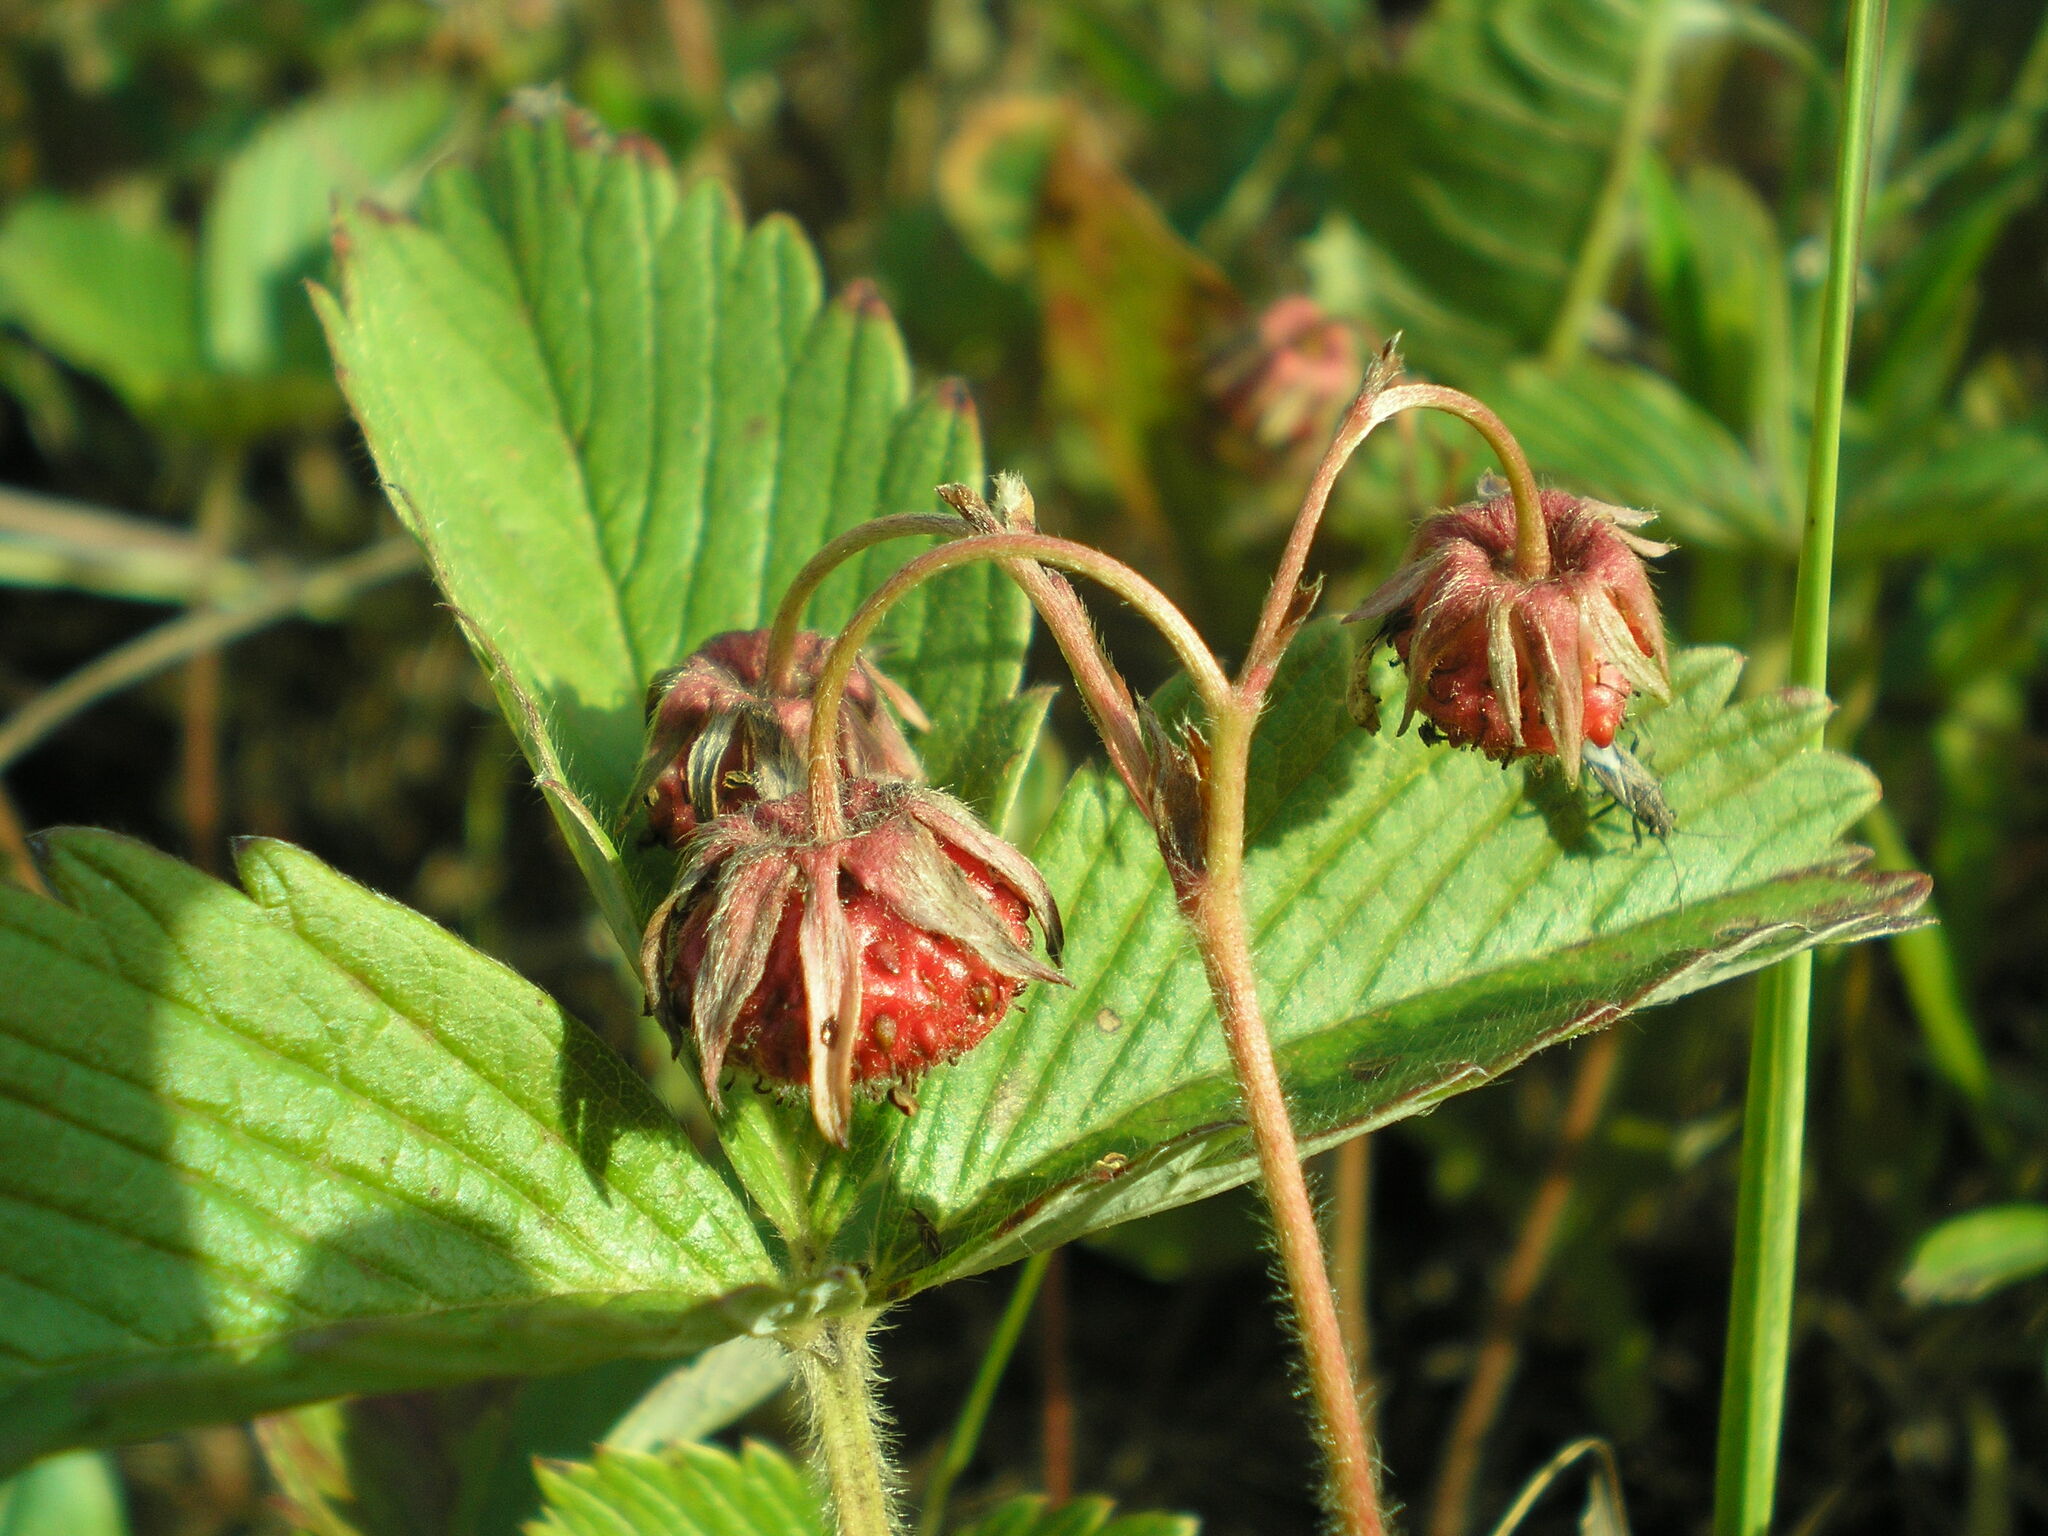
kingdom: Plantae
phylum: Tracheophyta
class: Magnoliopsida
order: Rosales
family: Rosaceae
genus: Fragaria
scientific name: Fragaria viridis
